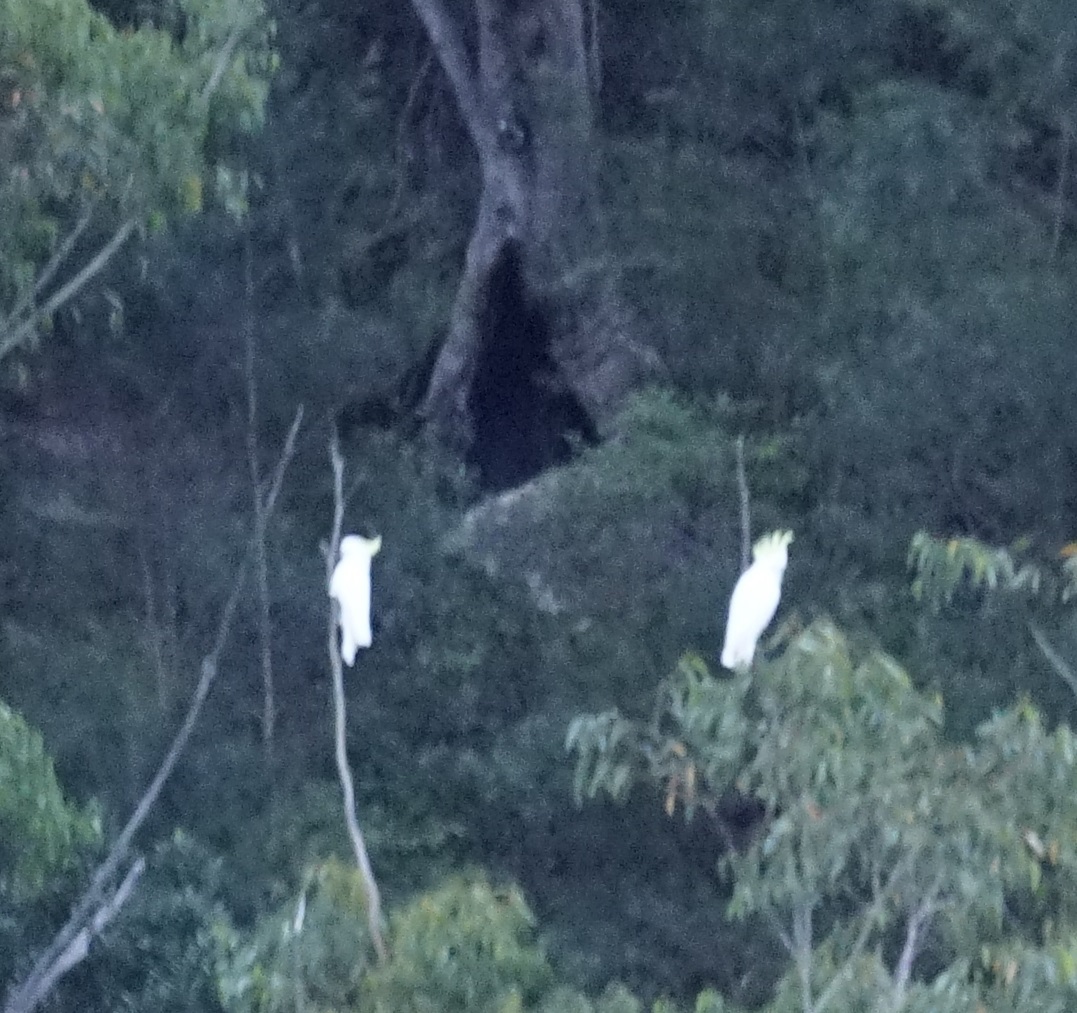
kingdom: Animalia
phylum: Chordata
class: Aves
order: Psittaciformes
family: Psittacidae
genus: Cacatua
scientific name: Cacatua galerita
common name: Sulphur-crested cockatoo
